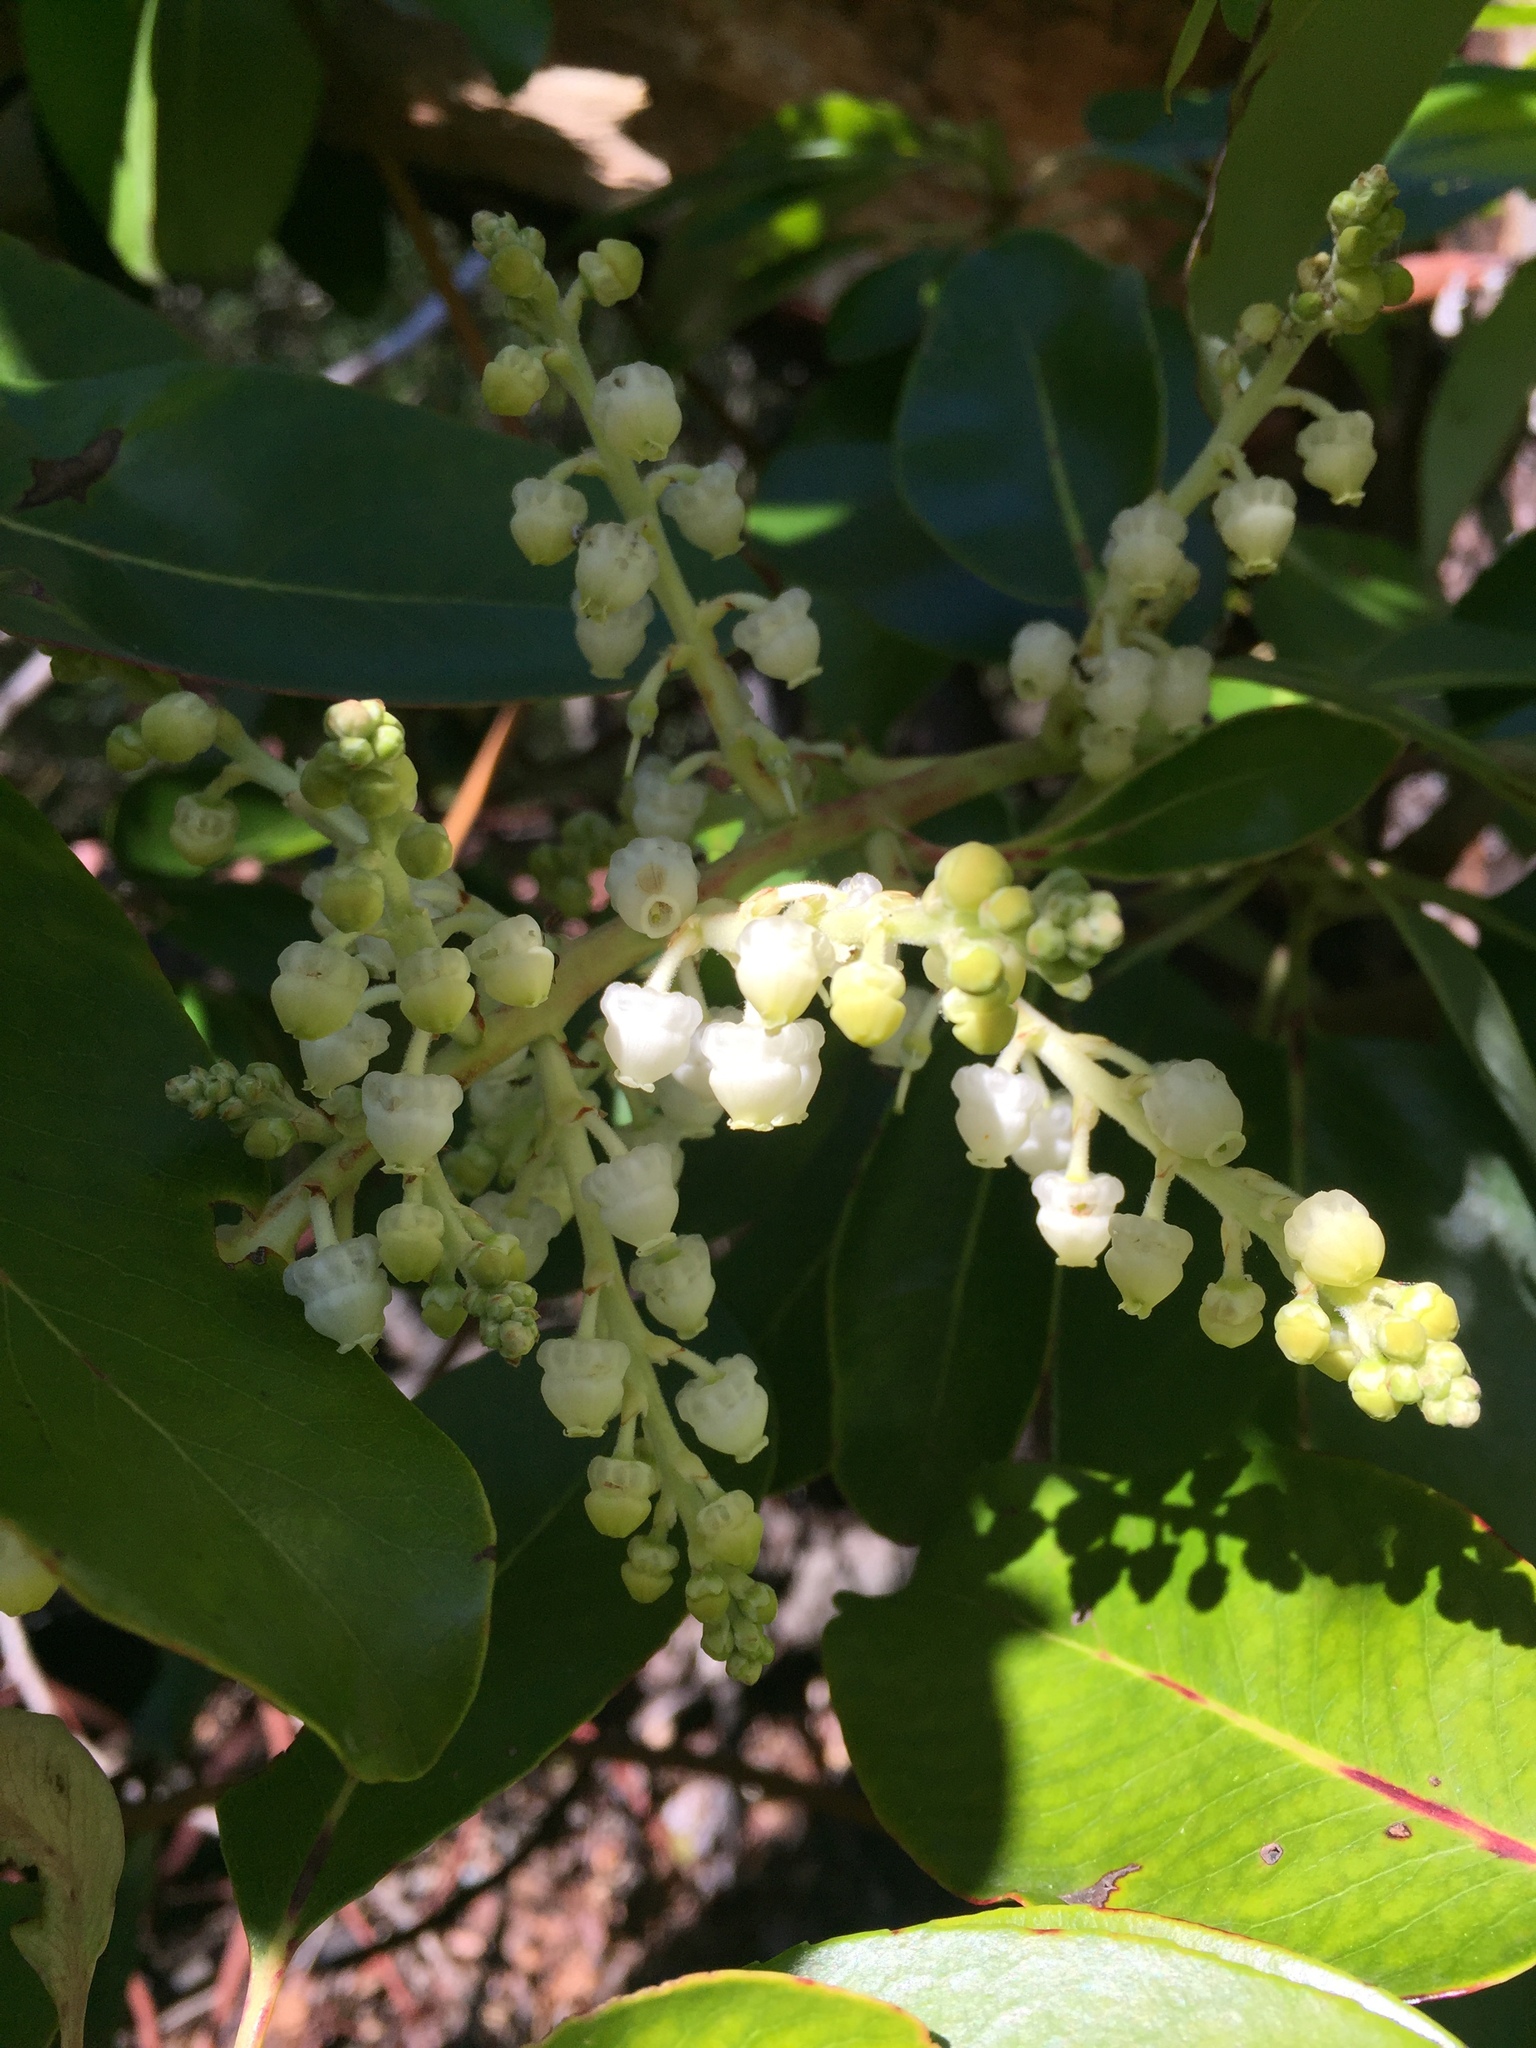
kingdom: Plantae
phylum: Tracheophyta
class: Magnoliopsida
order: Ericales
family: Ericaceae
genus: Arbutus
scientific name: Arbutus menziesii
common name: Pacific madrone
